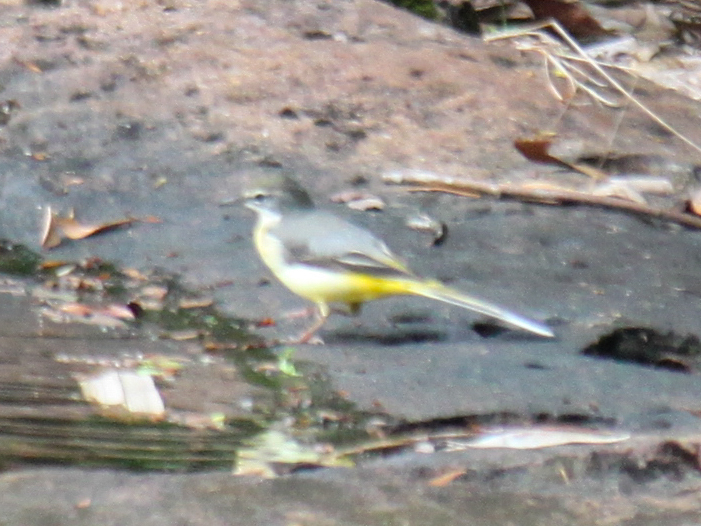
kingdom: Animalia
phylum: Chordata
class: Aves
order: Passeriformes
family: Motacillidae
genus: Motacilla
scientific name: Motacilla cinerea
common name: Grey wagtail
